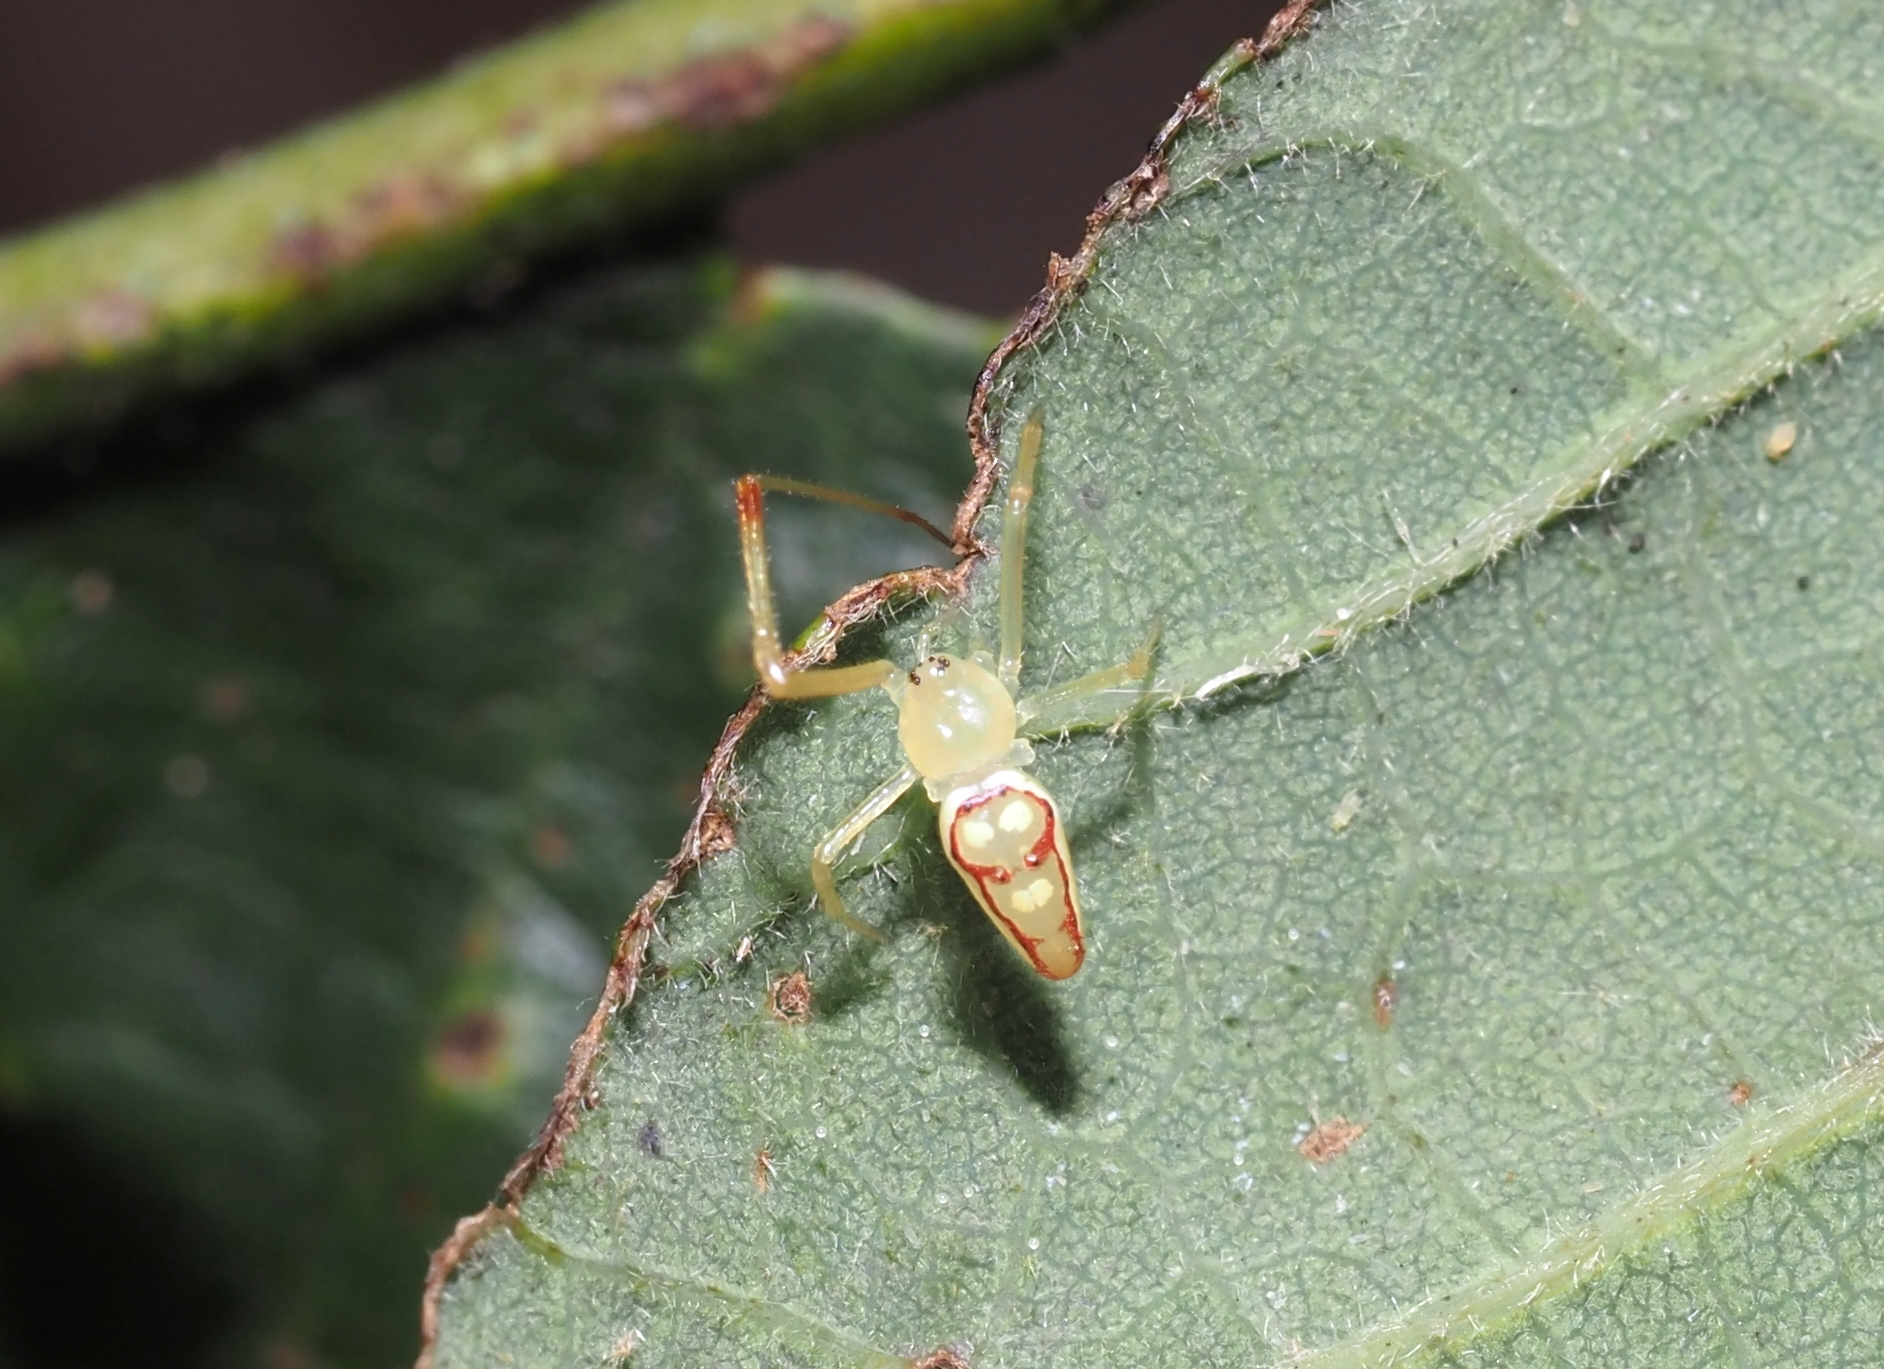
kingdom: Animalia
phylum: Arthropoda
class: Arachnida
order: Araneae
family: Theridiidae
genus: Spintharus
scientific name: Spintharus flavidus
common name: Cobweb spiders
